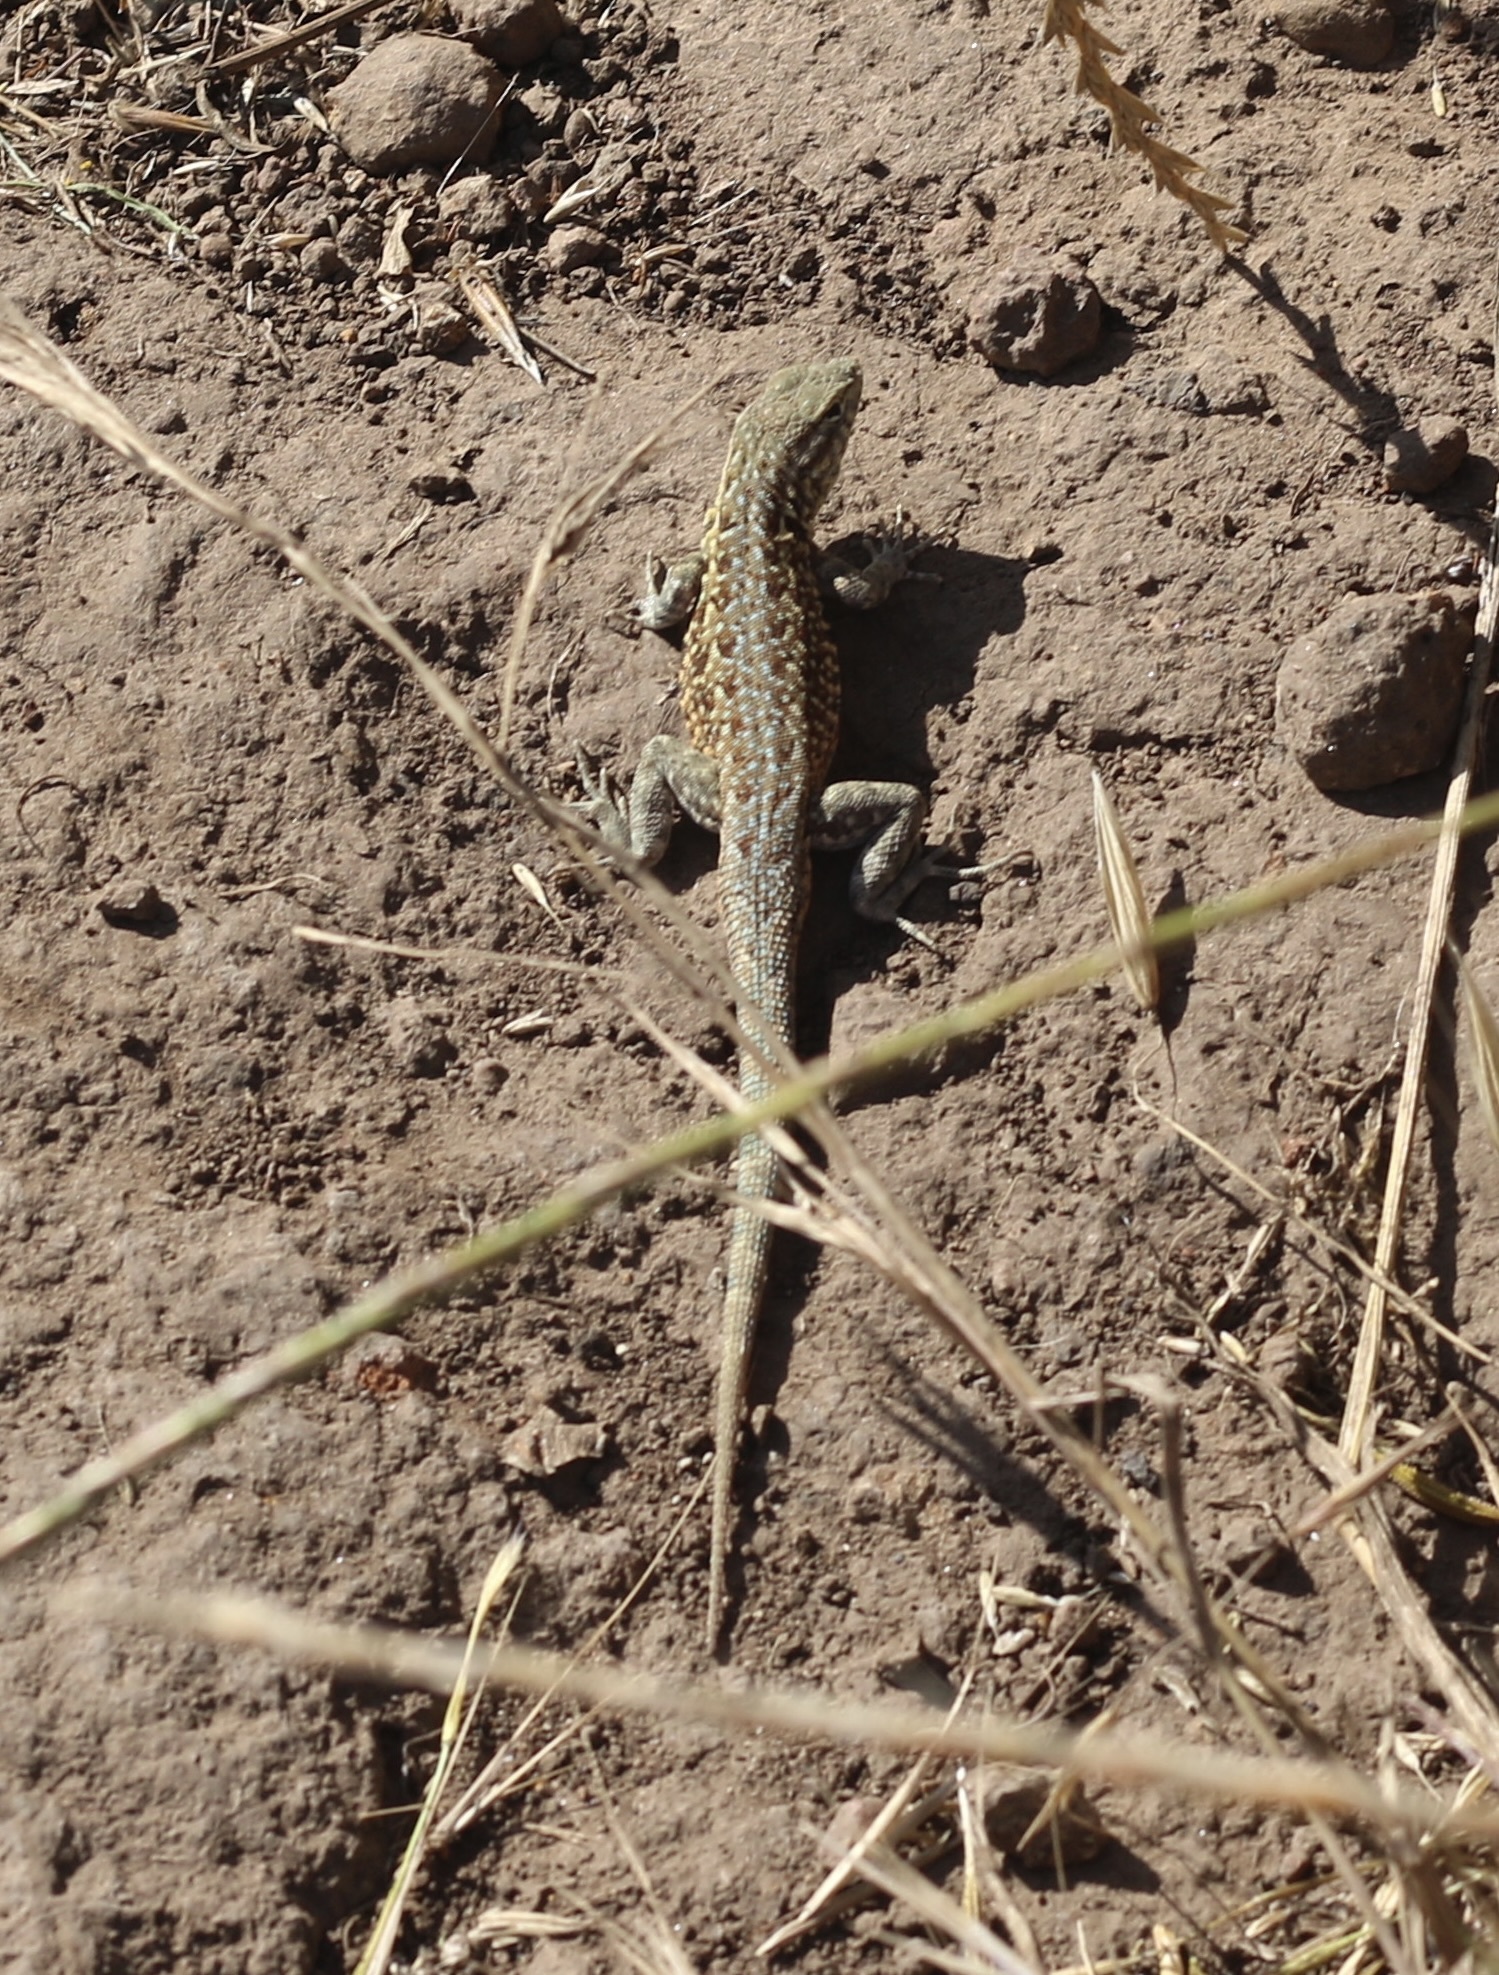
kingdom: Animalia
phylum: Chordata
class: Squamata
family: Phrynosomatidae
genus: Uta
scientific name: Uta stansburiana
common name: Side-blotched lizard
